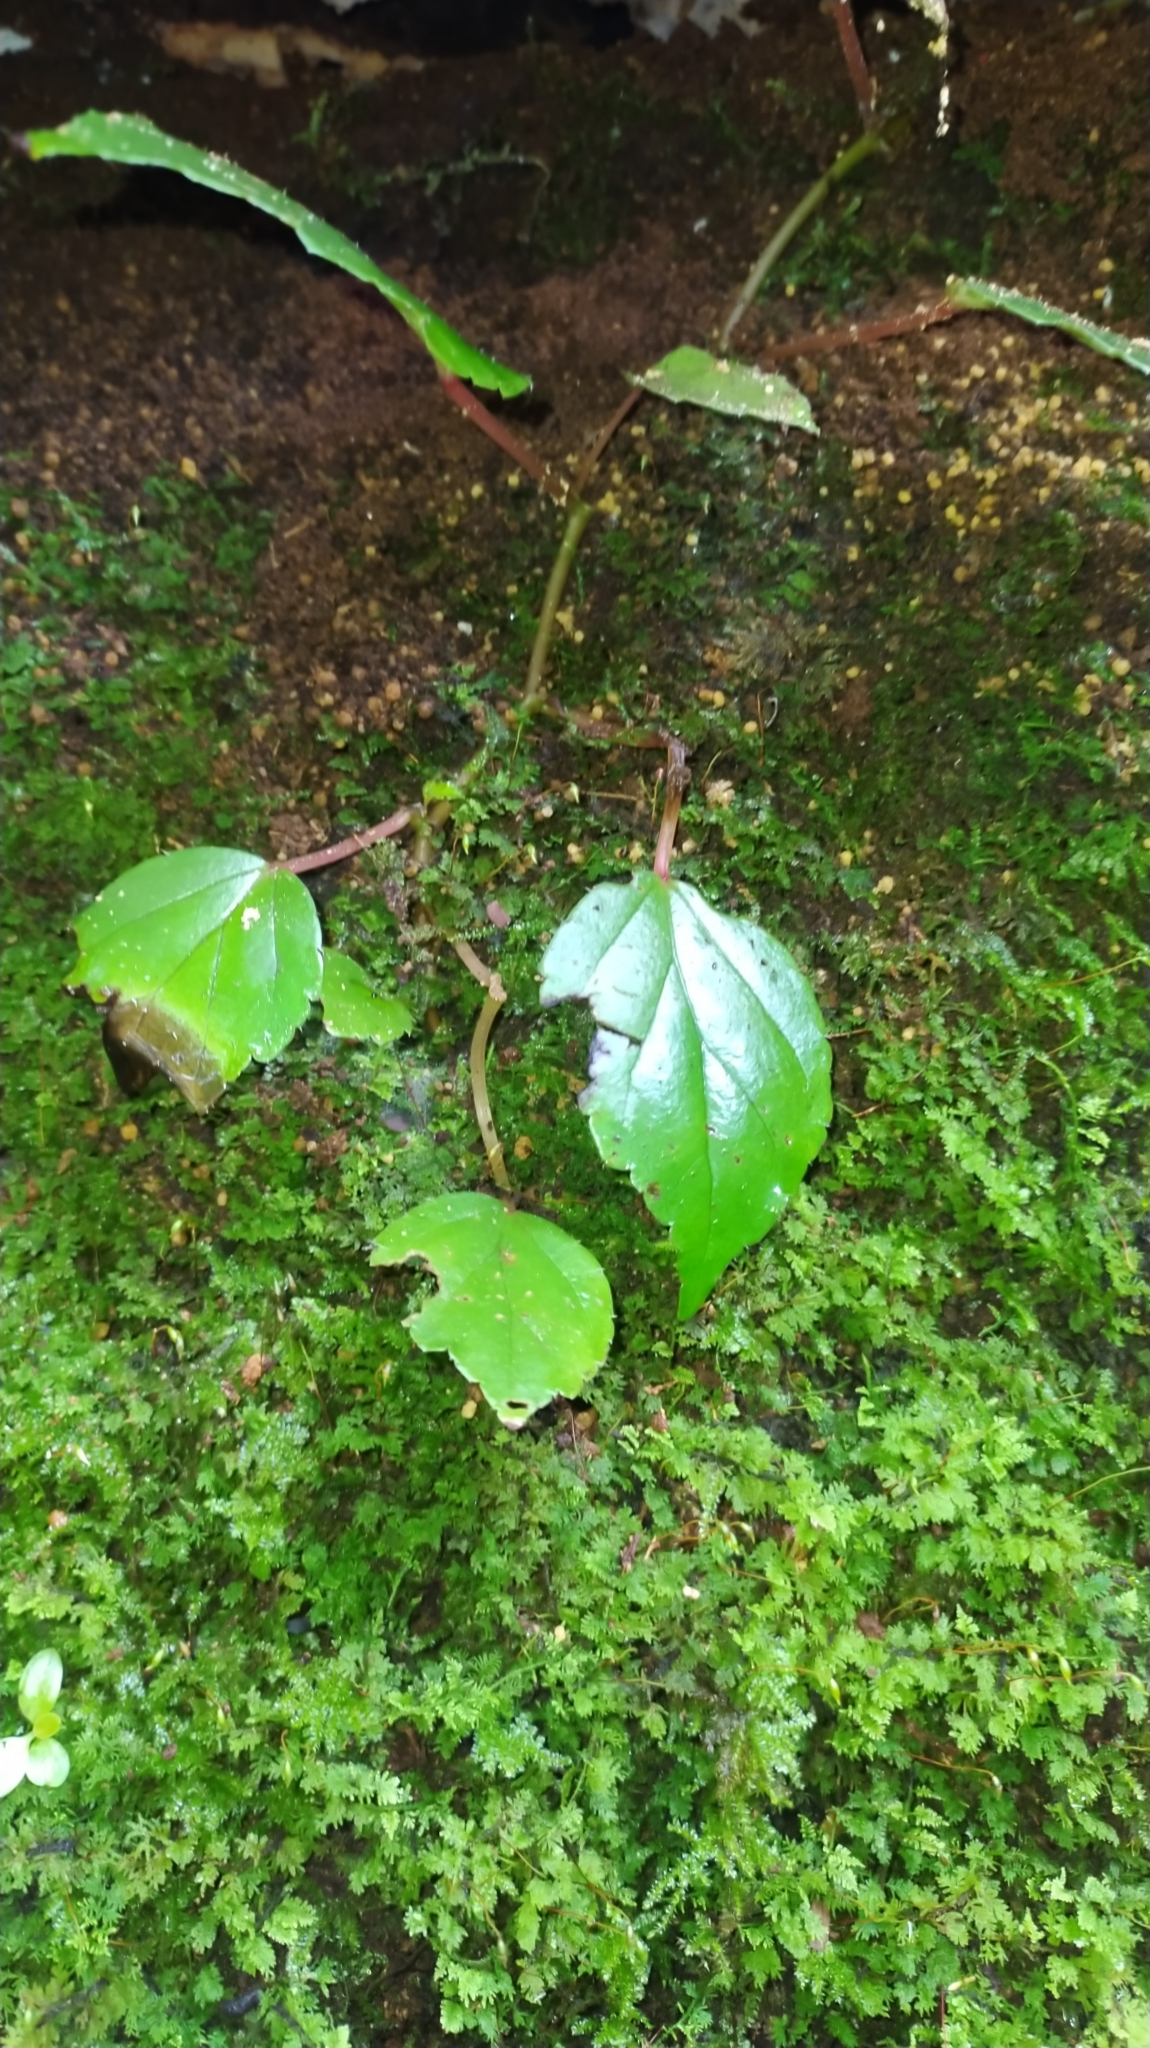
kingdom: Plantae
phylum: Tracheophyta
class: Magnoliopsida
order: Cucurbitales
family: Begoniaceae
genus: Begonia
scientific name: Begonia glabra
